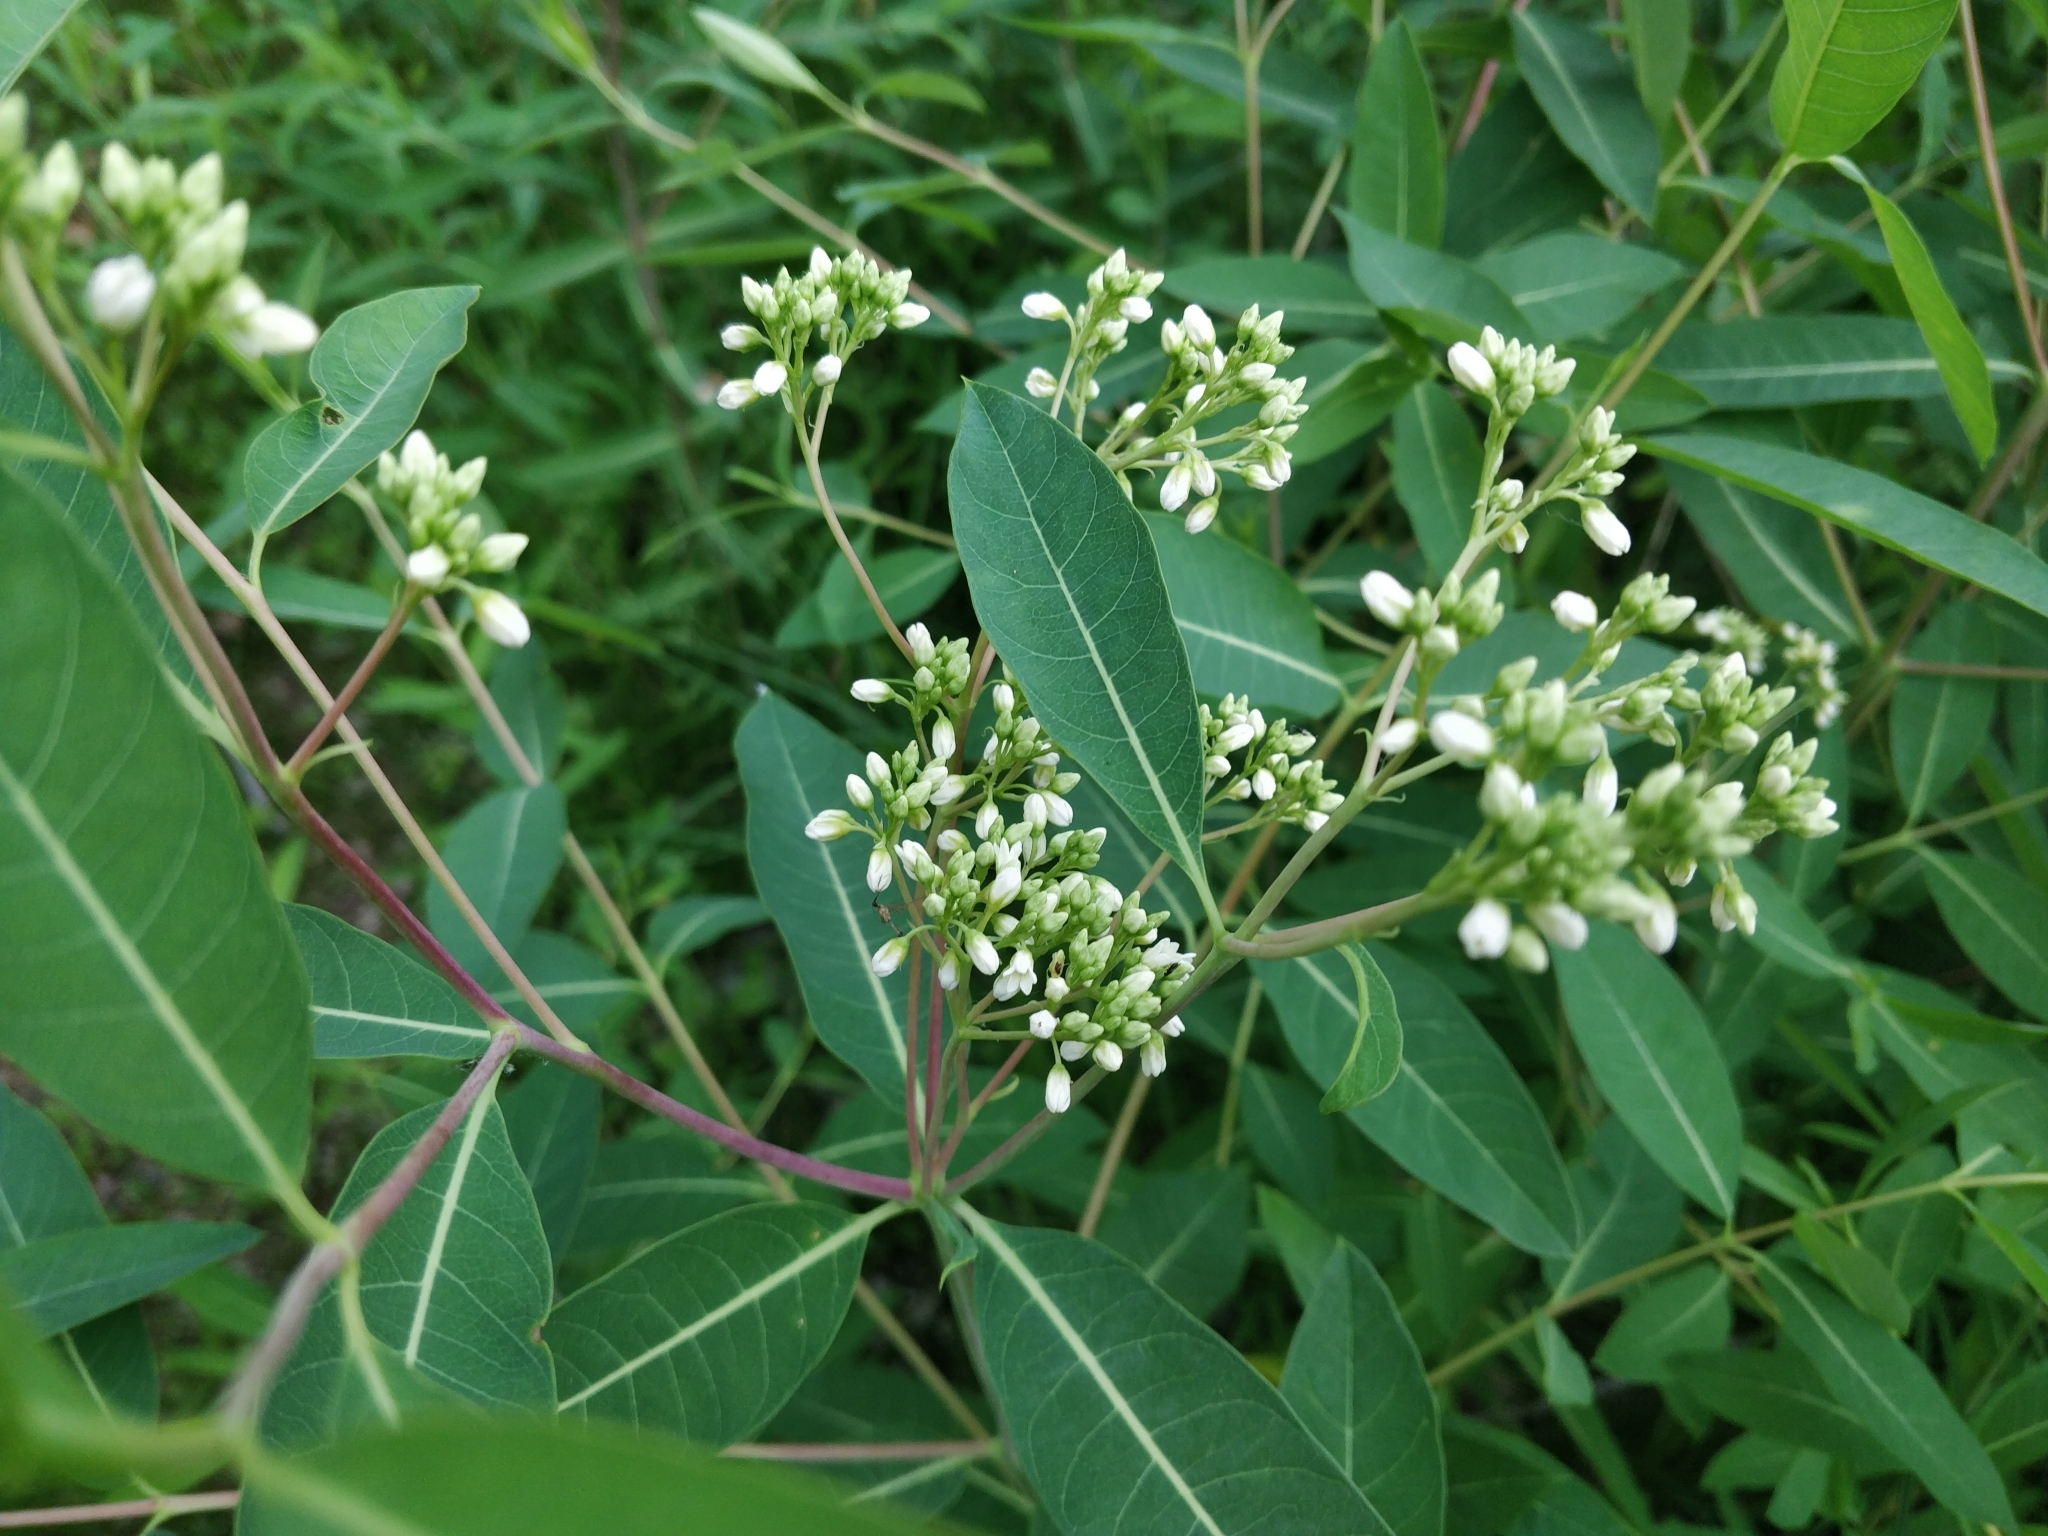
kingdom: Plantae
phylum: Tracheophyta
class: Magnoliopsida
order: Gentianales
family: Apocynaceae
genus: Apocynum
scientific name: Apocynum cannabinum
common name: Hemp dogbane
